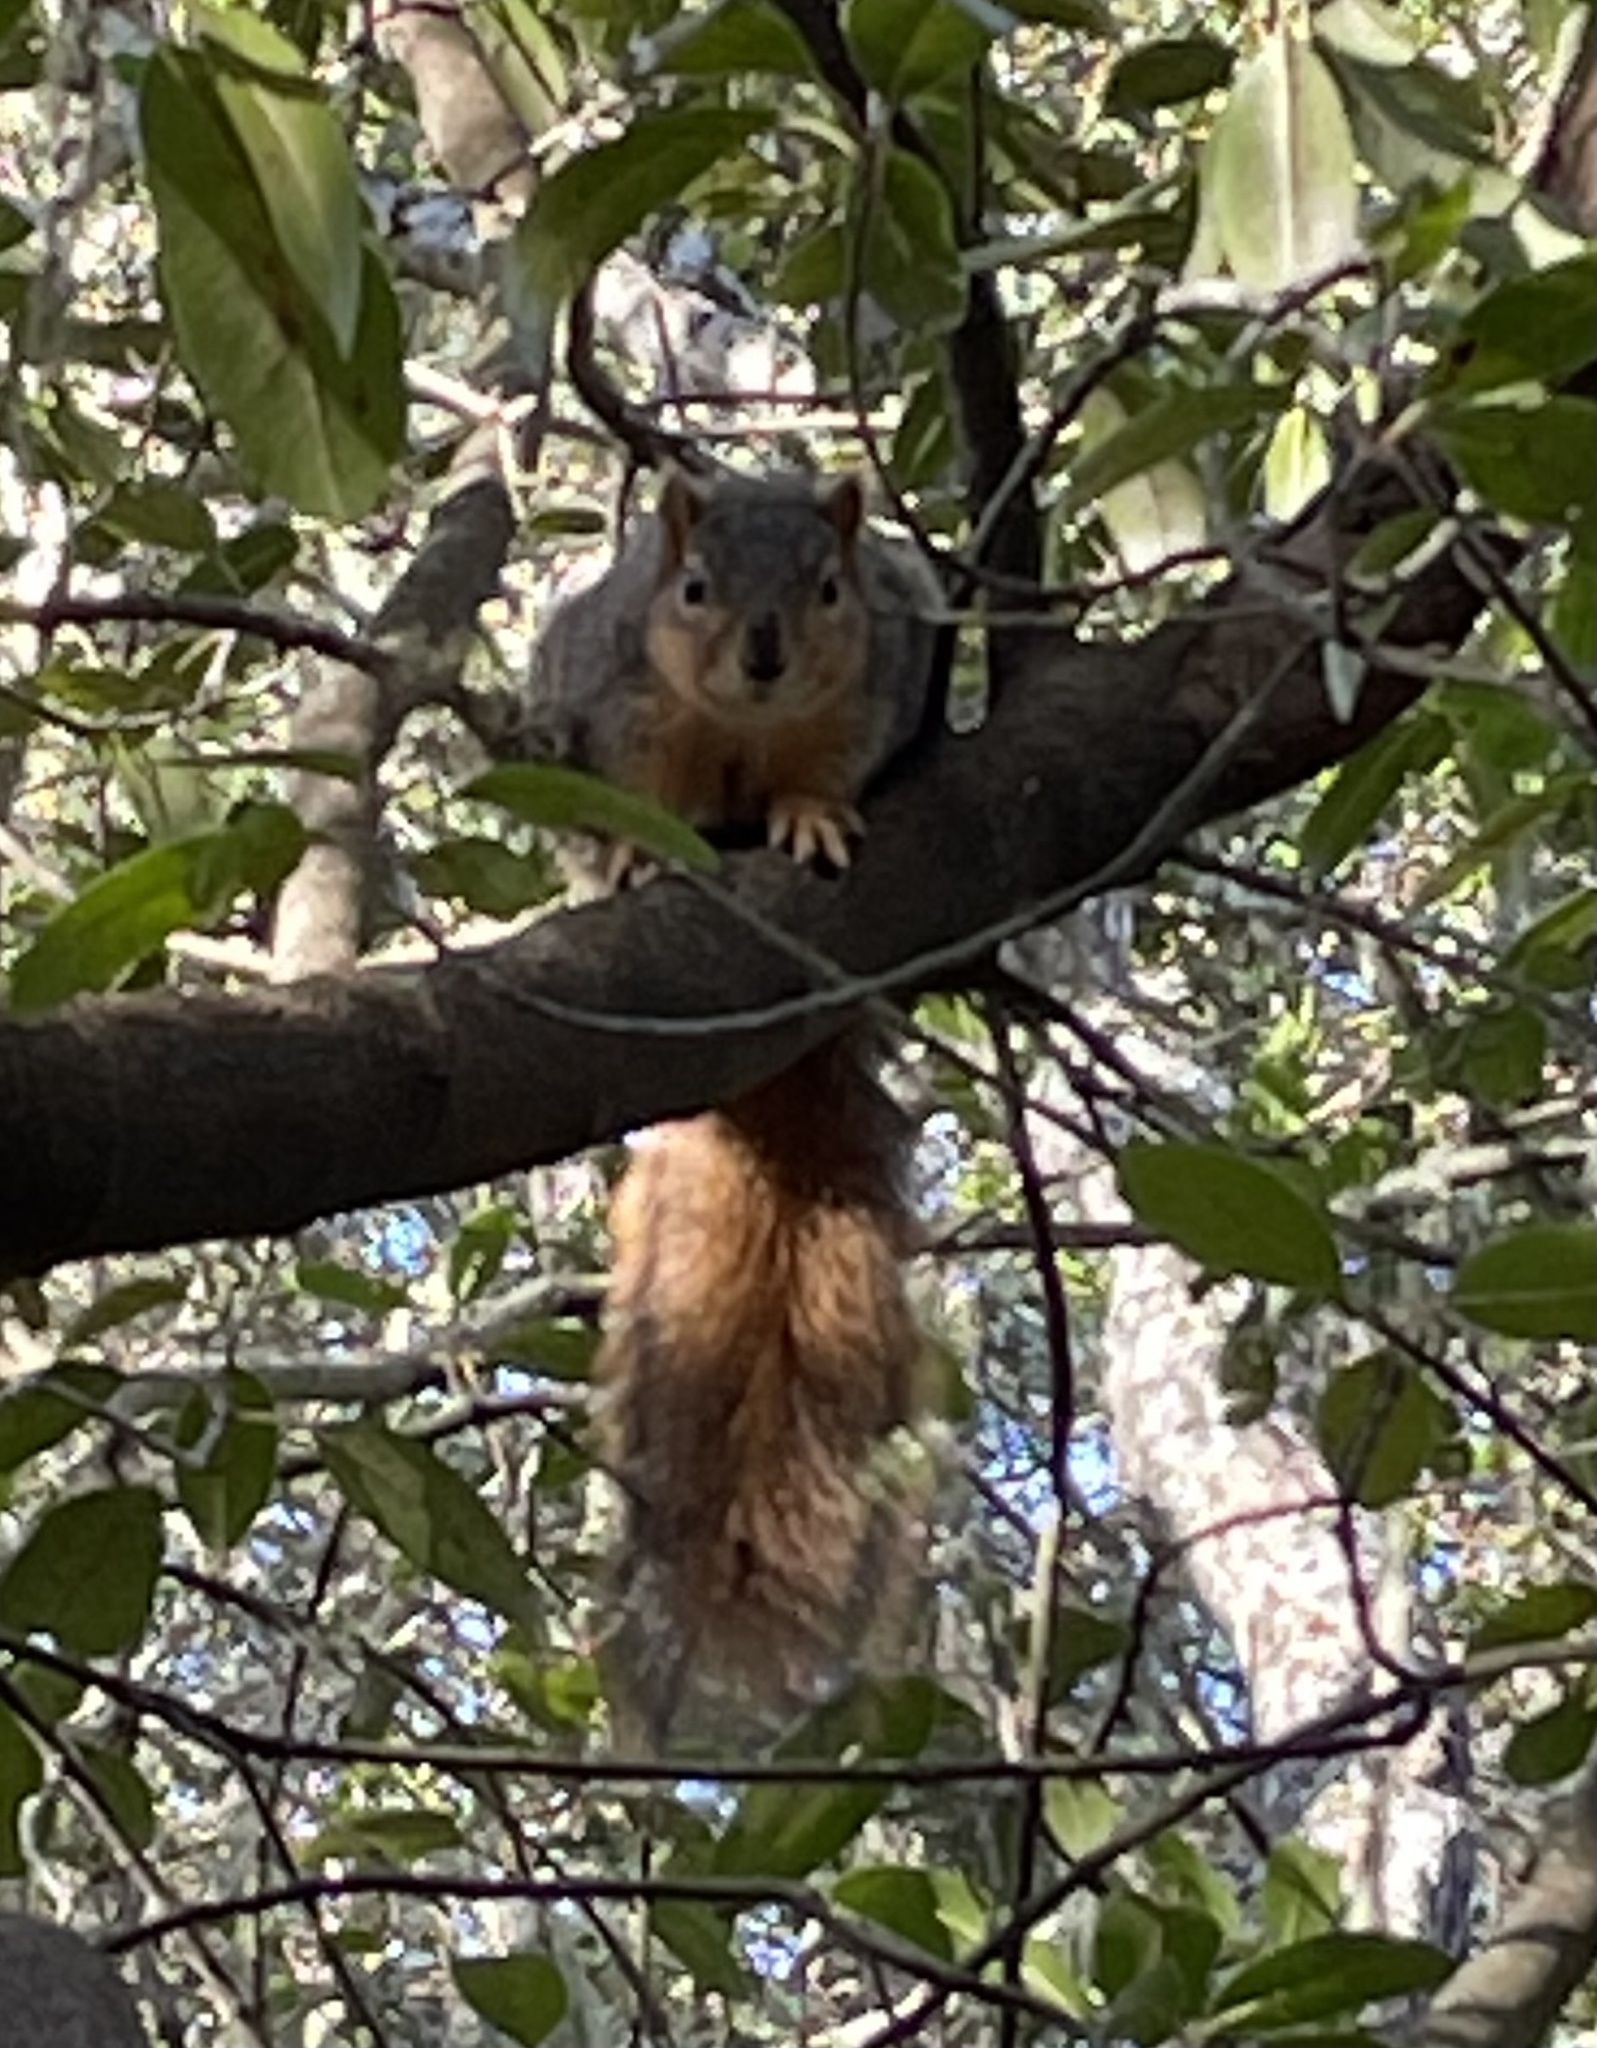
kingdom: Animalia
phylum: Chordata
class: Mammalia
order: Rodentia
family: Sciuridae
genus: Sciurus
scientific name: Sciurus niger
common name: Fox squirrel
